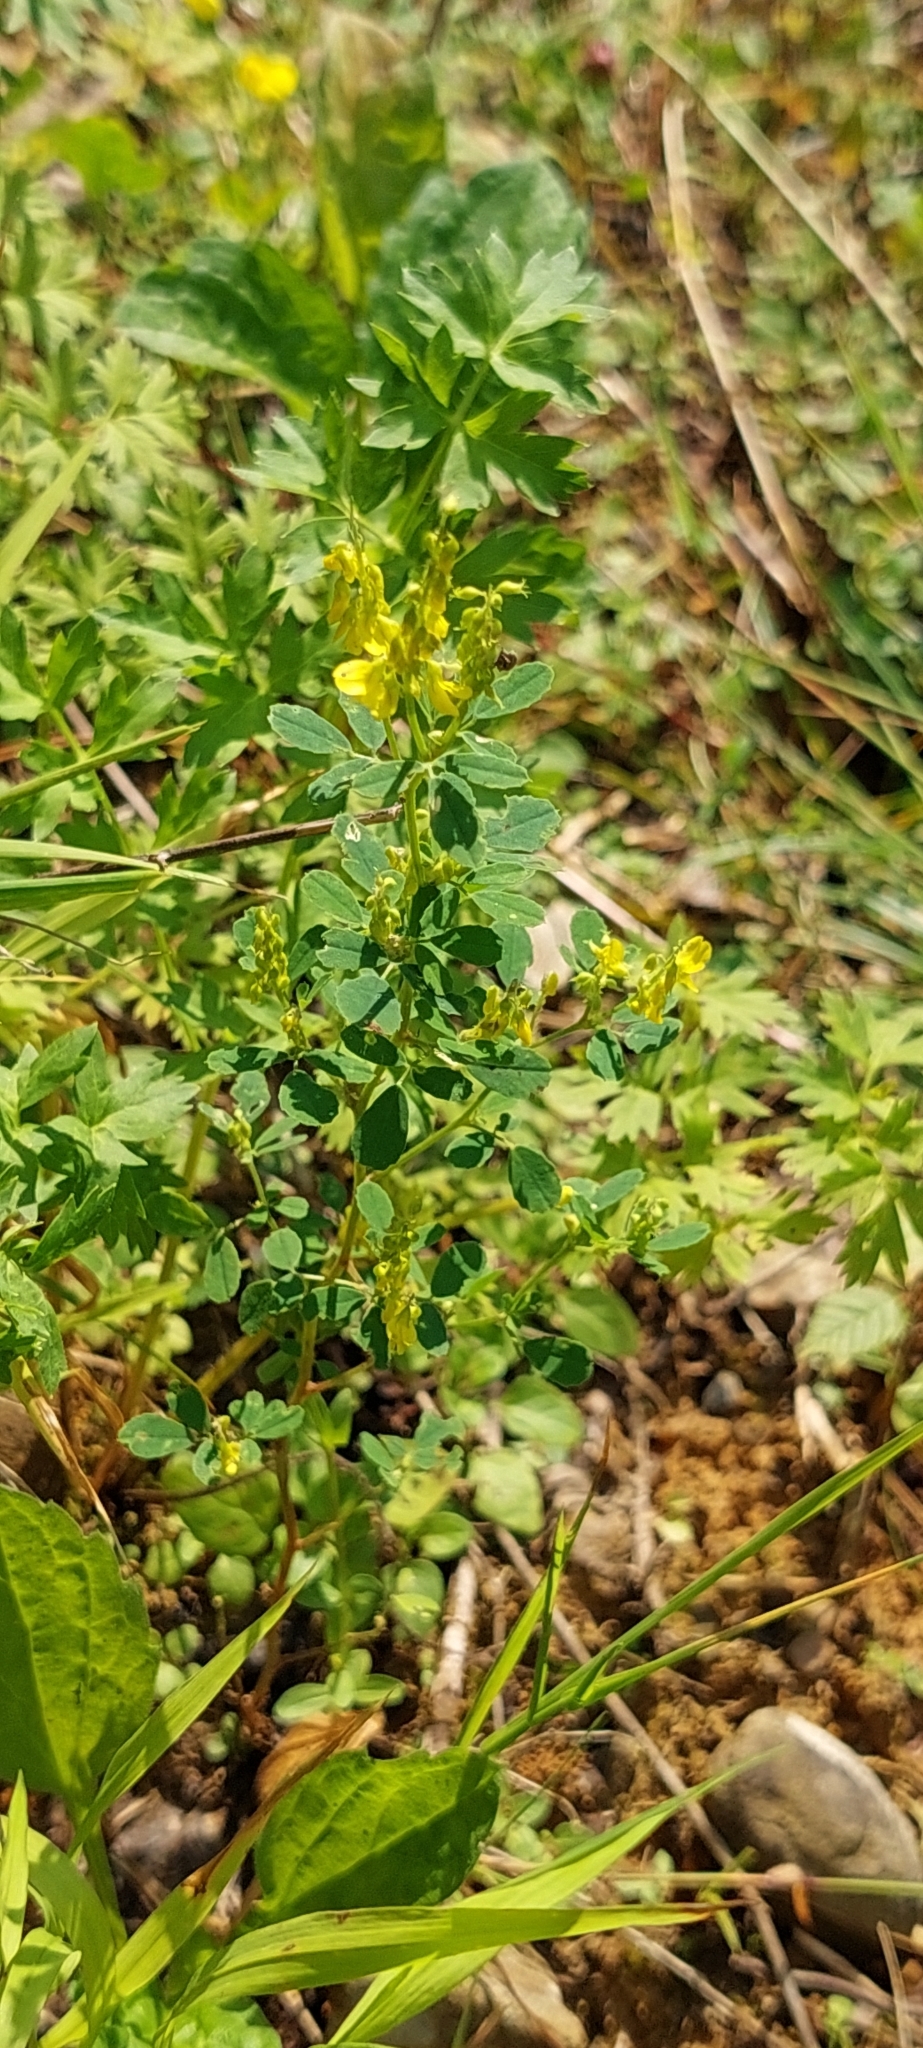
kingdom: Plantae
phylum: Tracheophyta
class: Magnoliopsida
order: Fabales
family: Fabaceae
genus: Melilotus
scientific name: Melilotus officinalis
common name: Sweetclover
